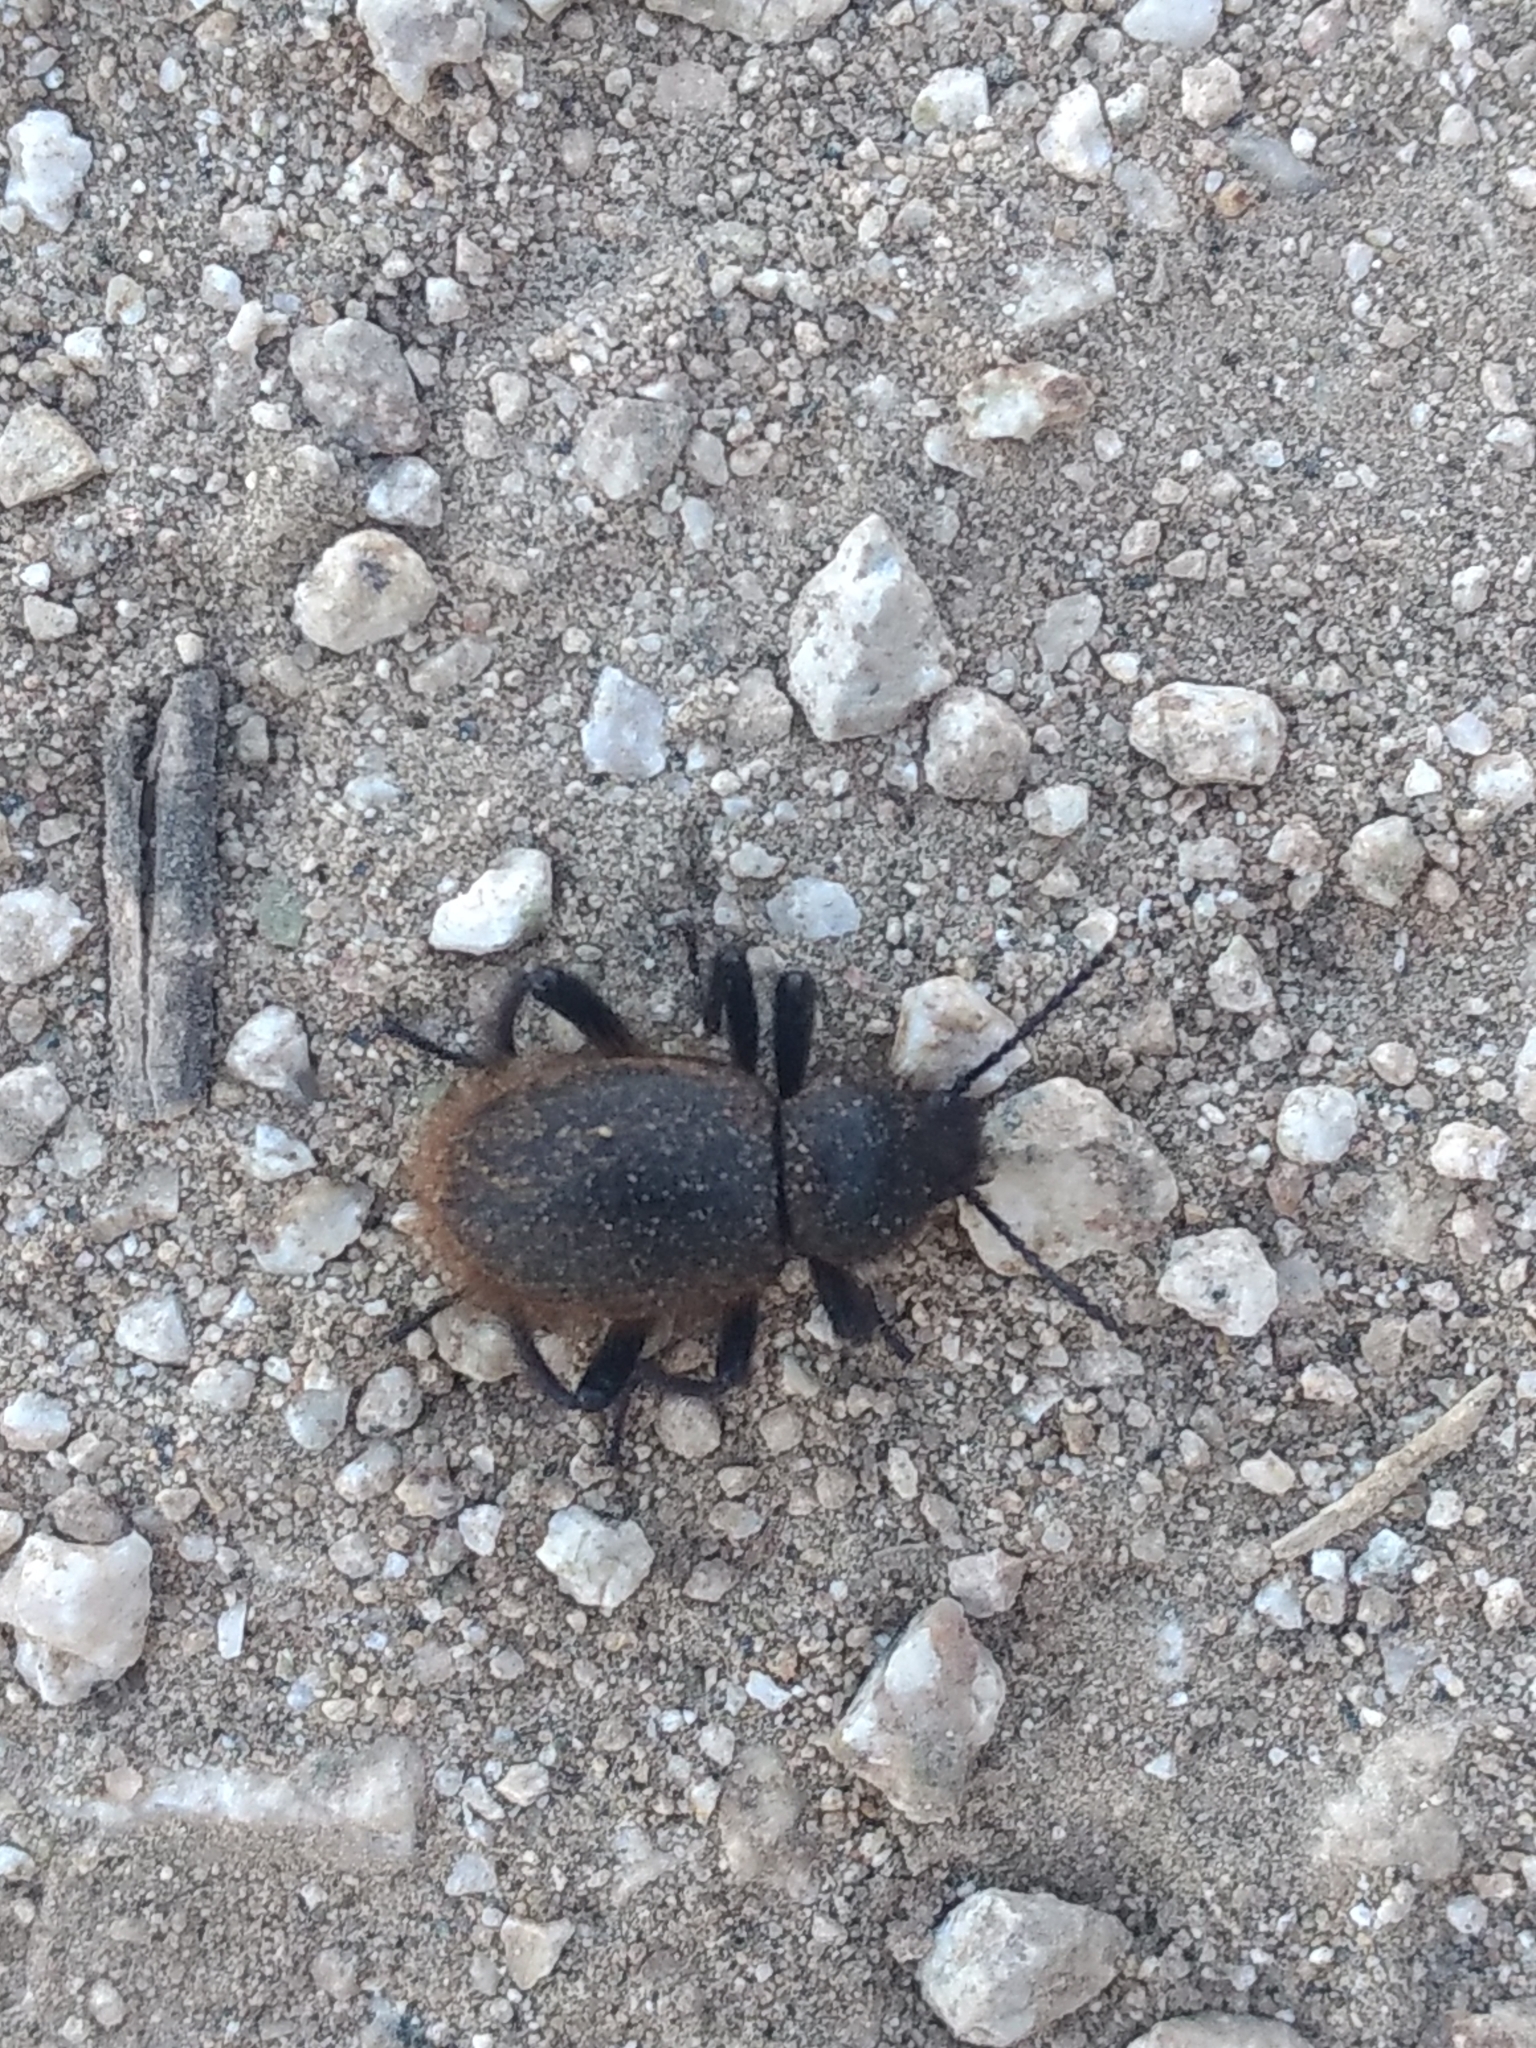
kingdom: Animalia
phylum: Arthropoda
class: Insecta
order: Coleoptera
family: Tenebrionidae
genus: Eleodes
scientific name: Eleodes osculans
